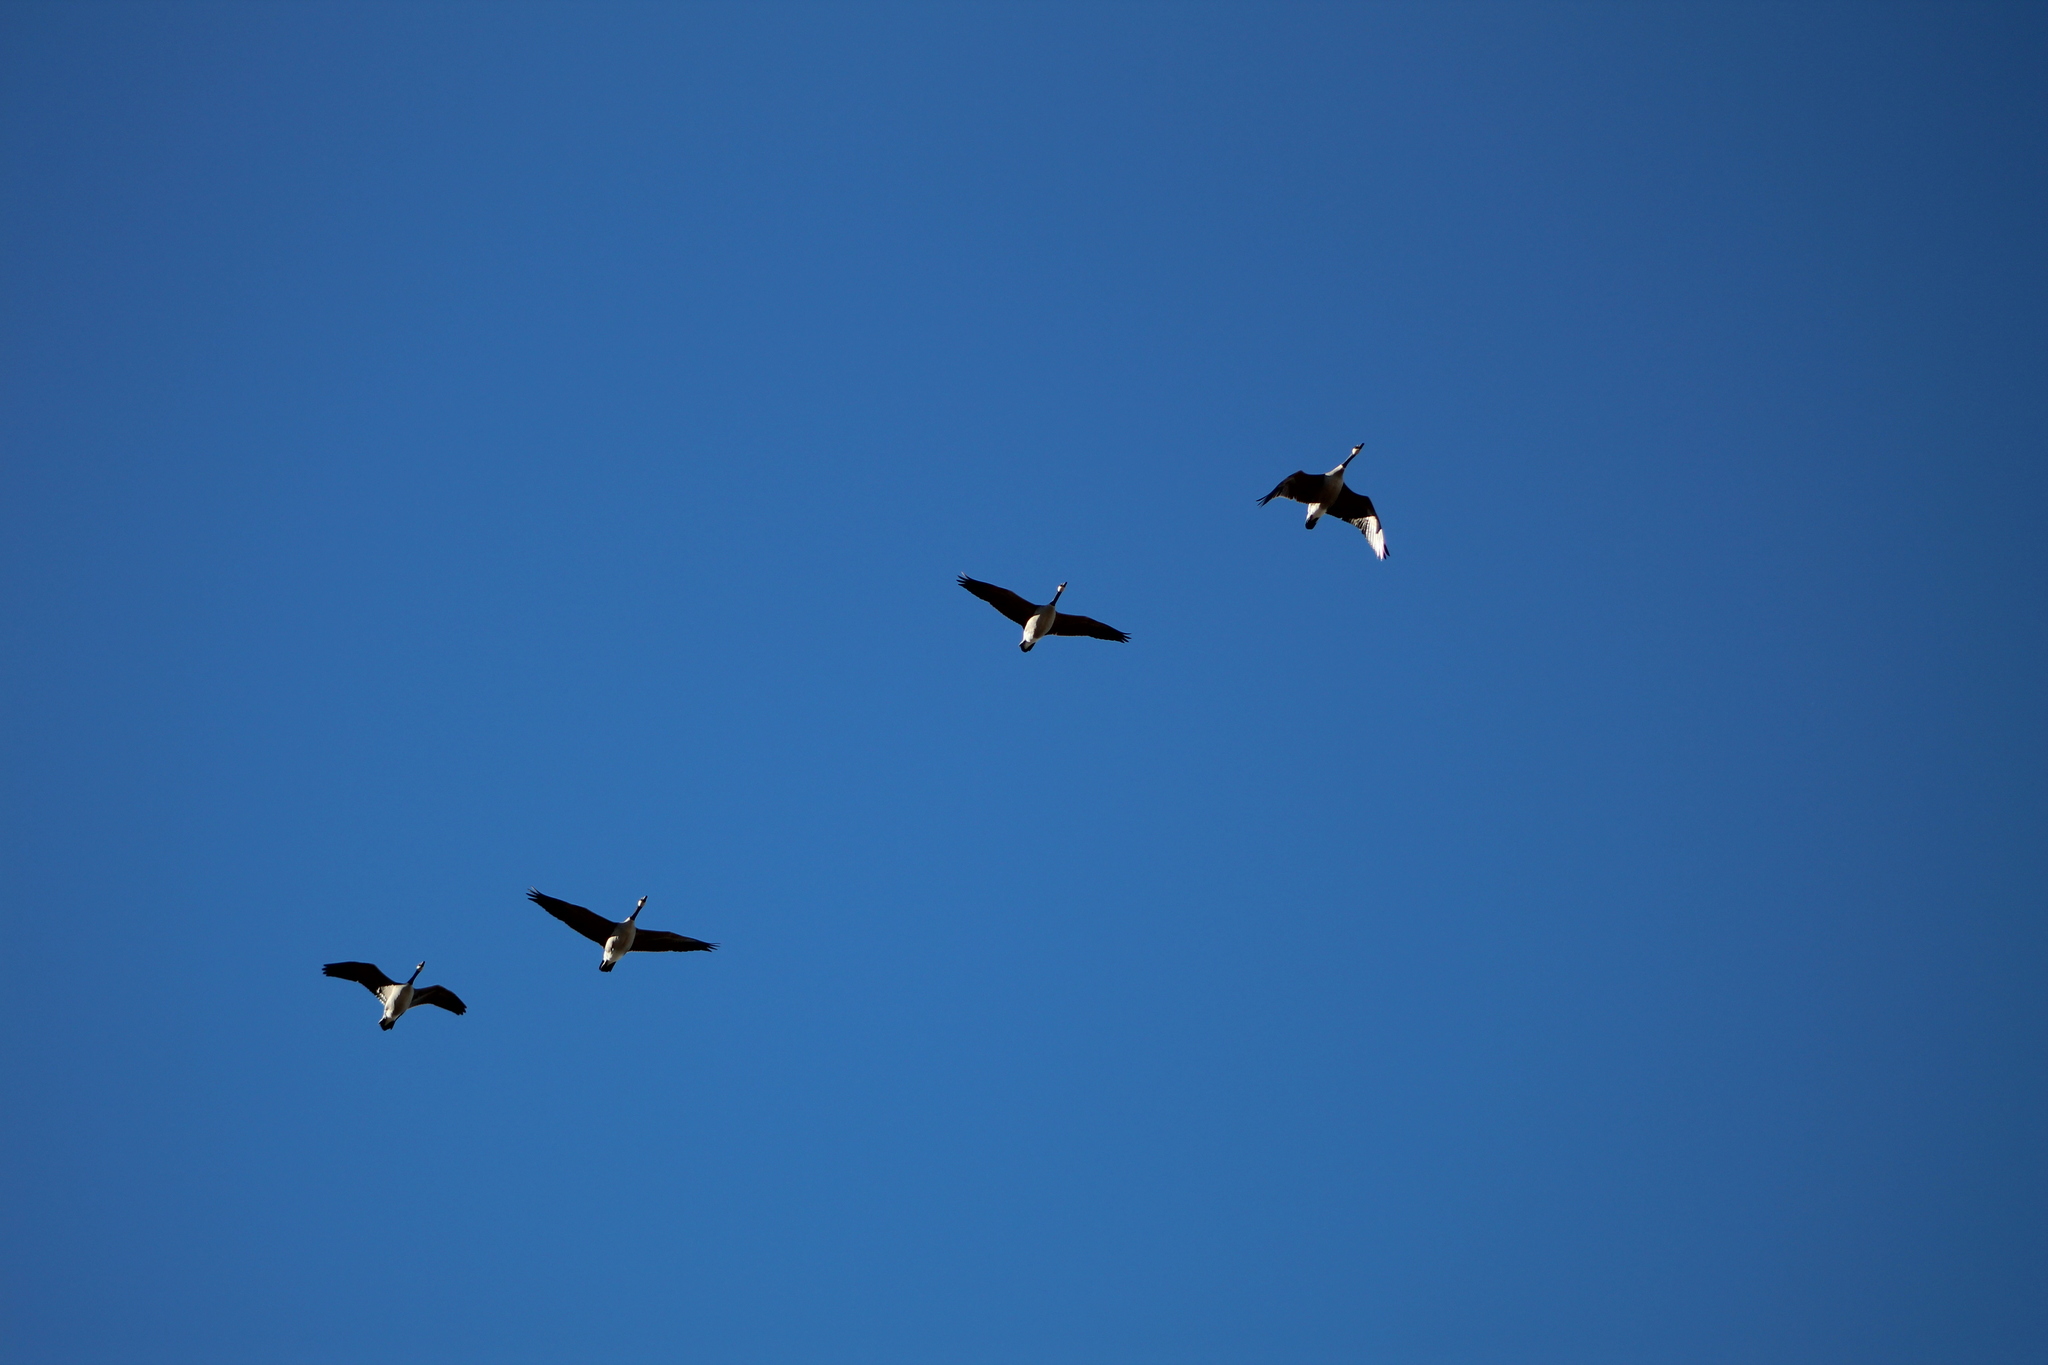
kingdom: Animalia
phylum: Chordata
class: Aves
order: Anseriformes
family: Anatidae
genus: Branta
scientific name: Branta canadensis
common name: Canada goose
